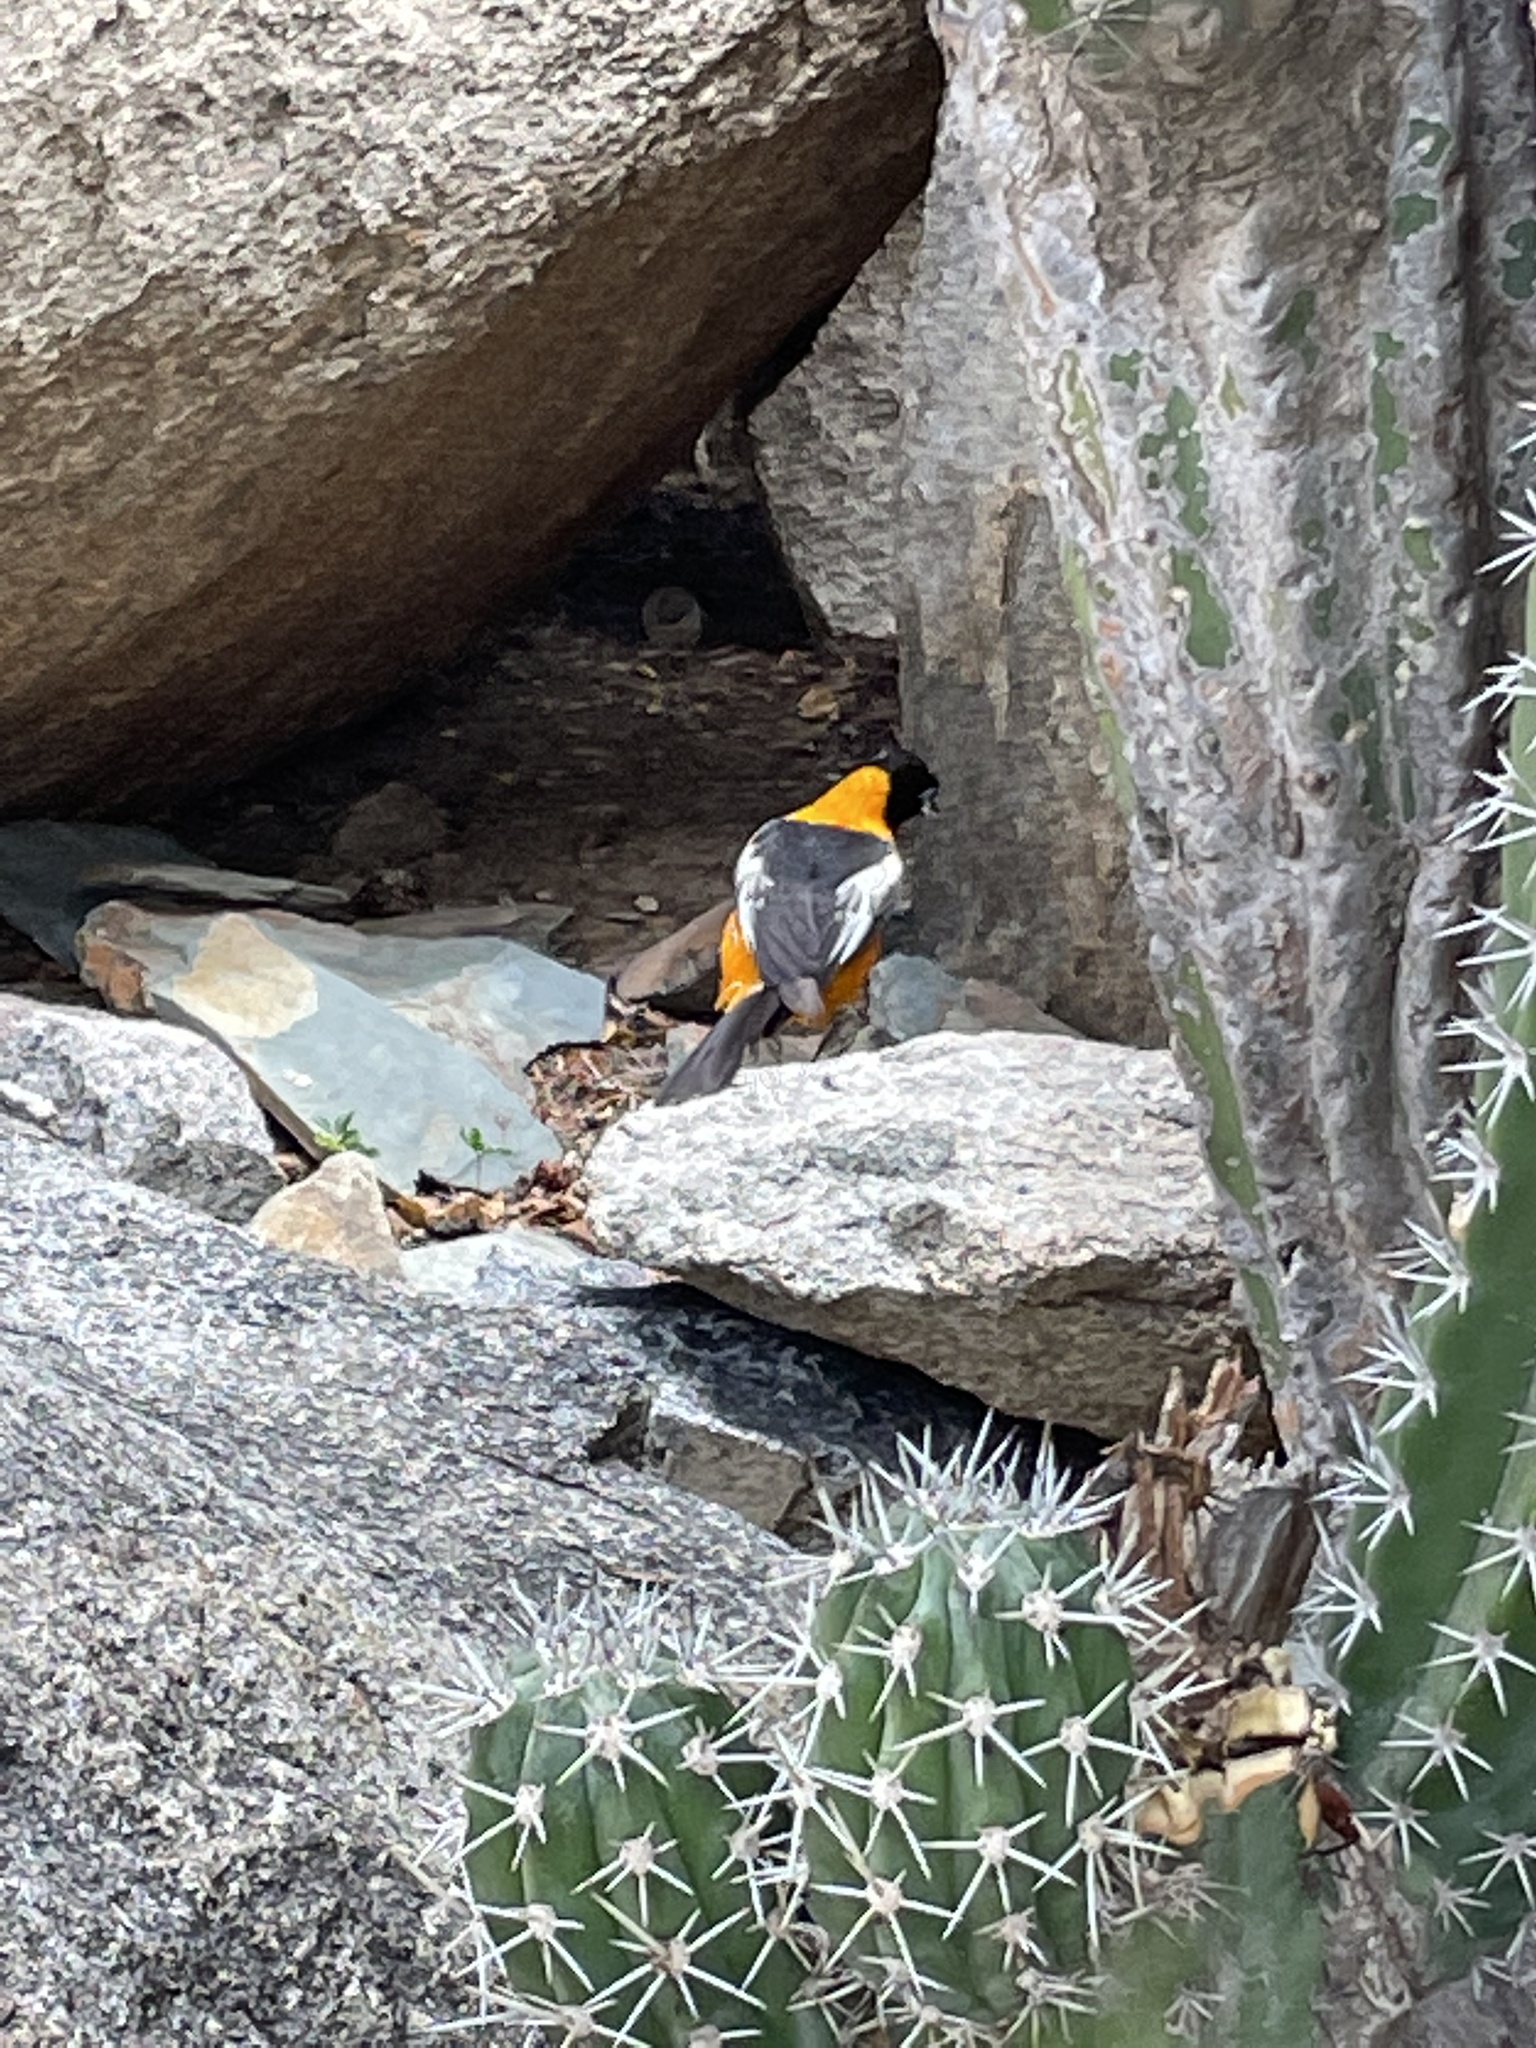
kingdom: Animalia
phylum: Chordata
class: Aves
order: Passeriformes
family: Icteridae
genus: Icterus
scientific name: Icterus icterus
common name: Venezuelan troupial
